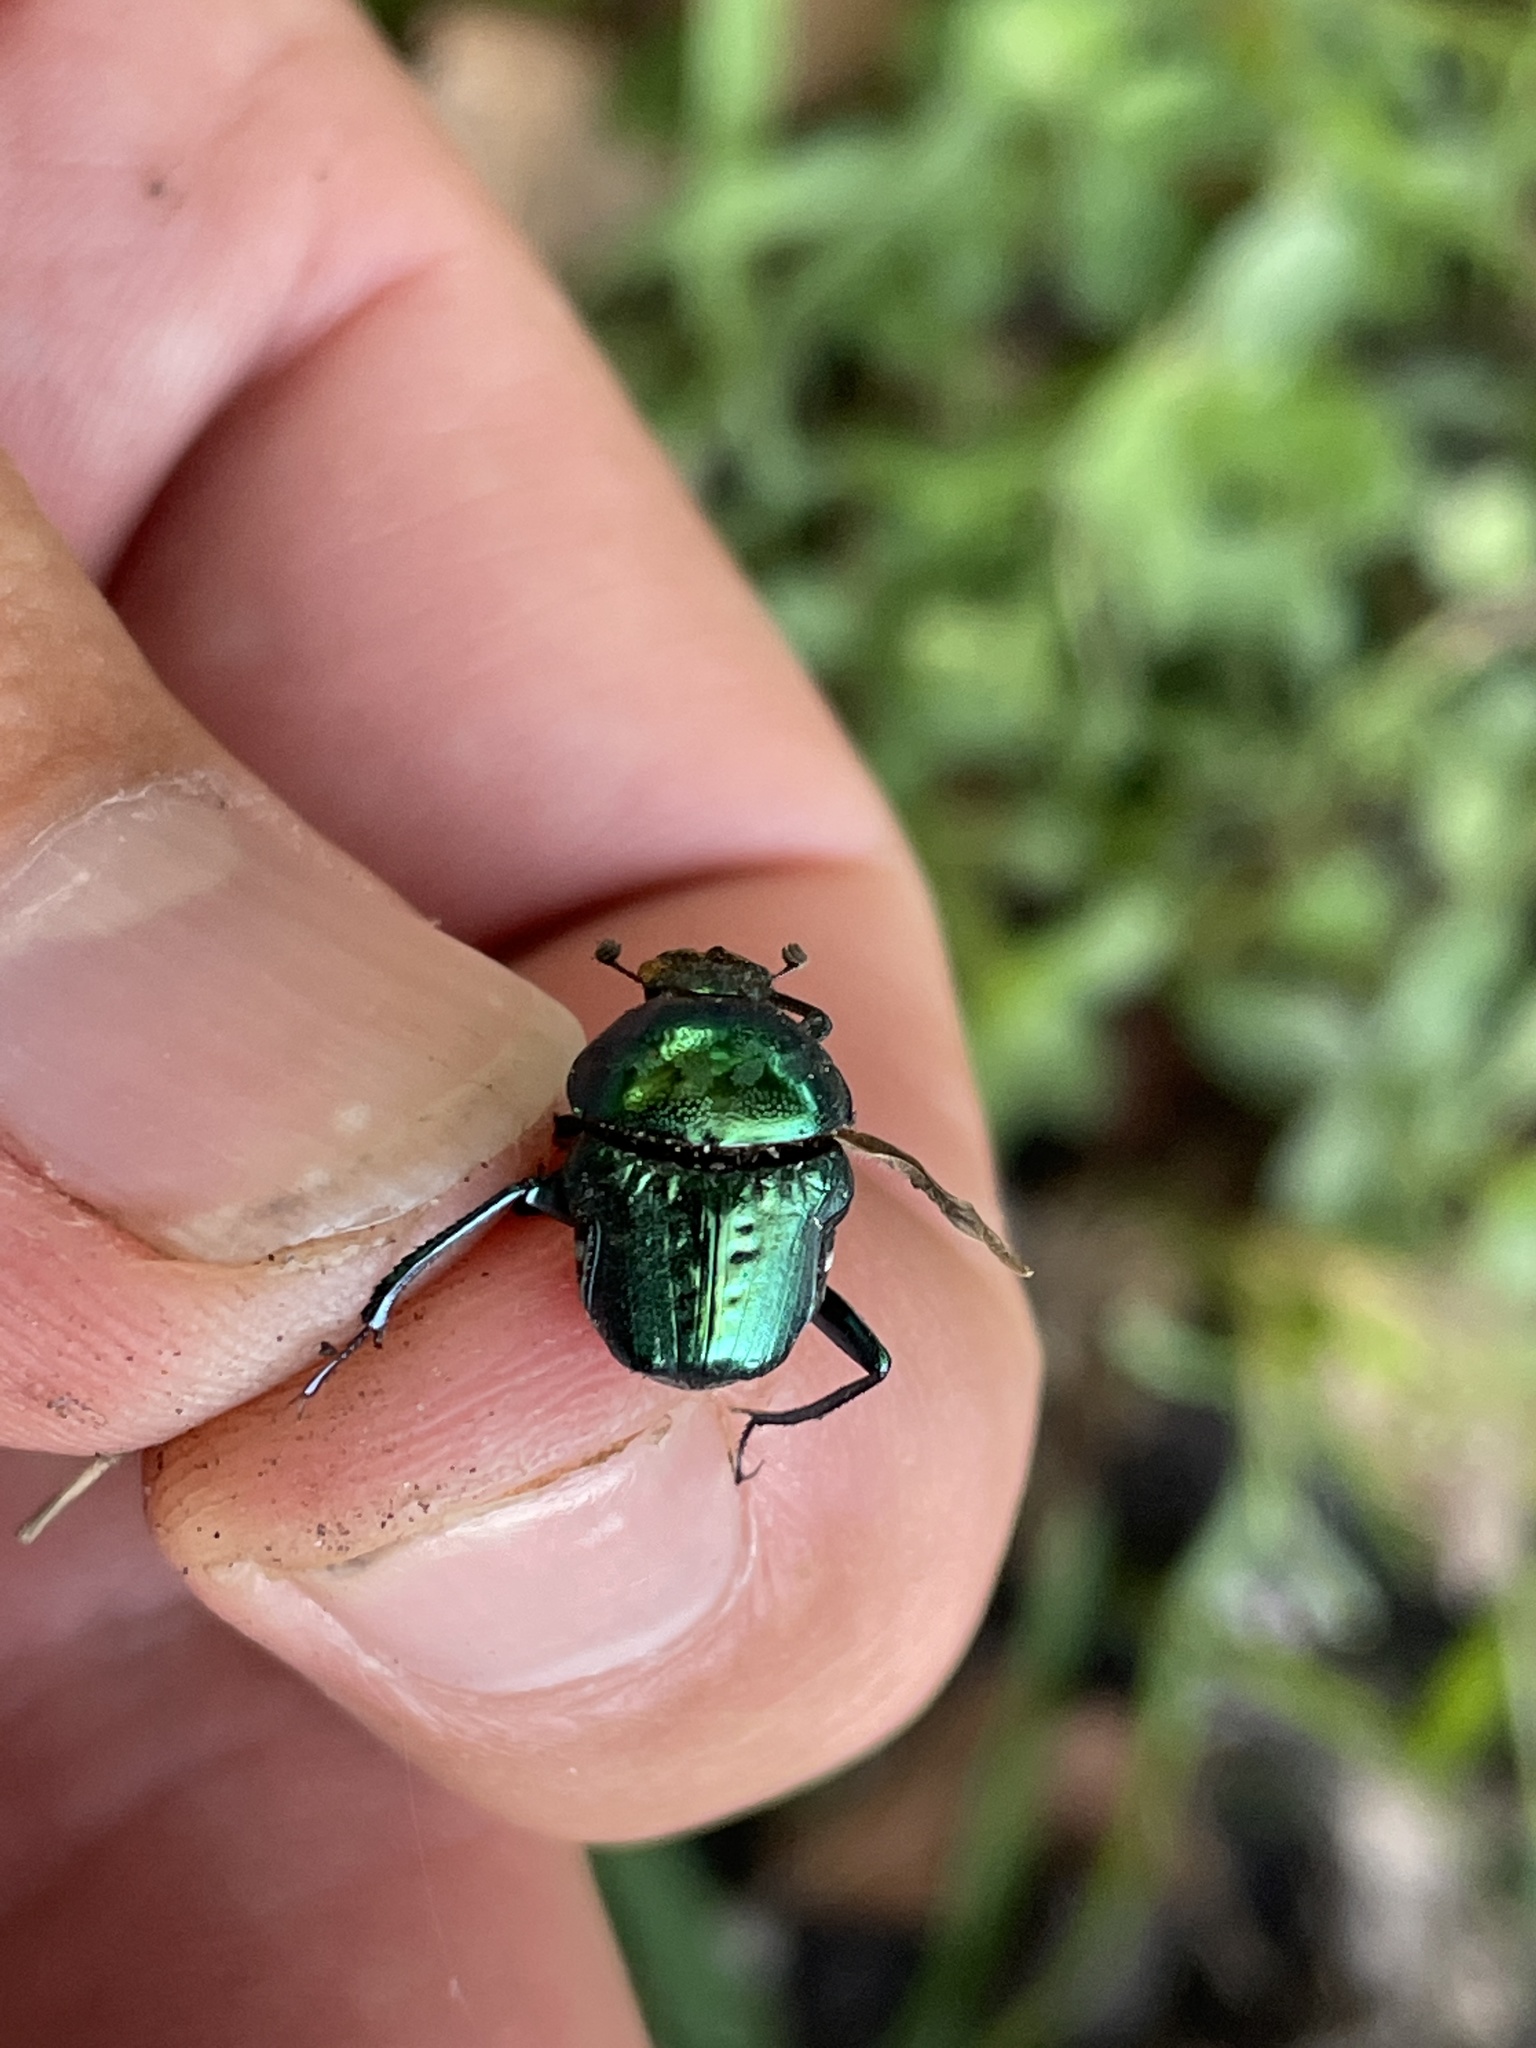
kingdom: Animalia
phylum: Arthropoda
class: Insecta
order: Coleoptera
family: Scarabaeidae
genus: Gymnopleurus
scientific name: Gymnopleurus virens
